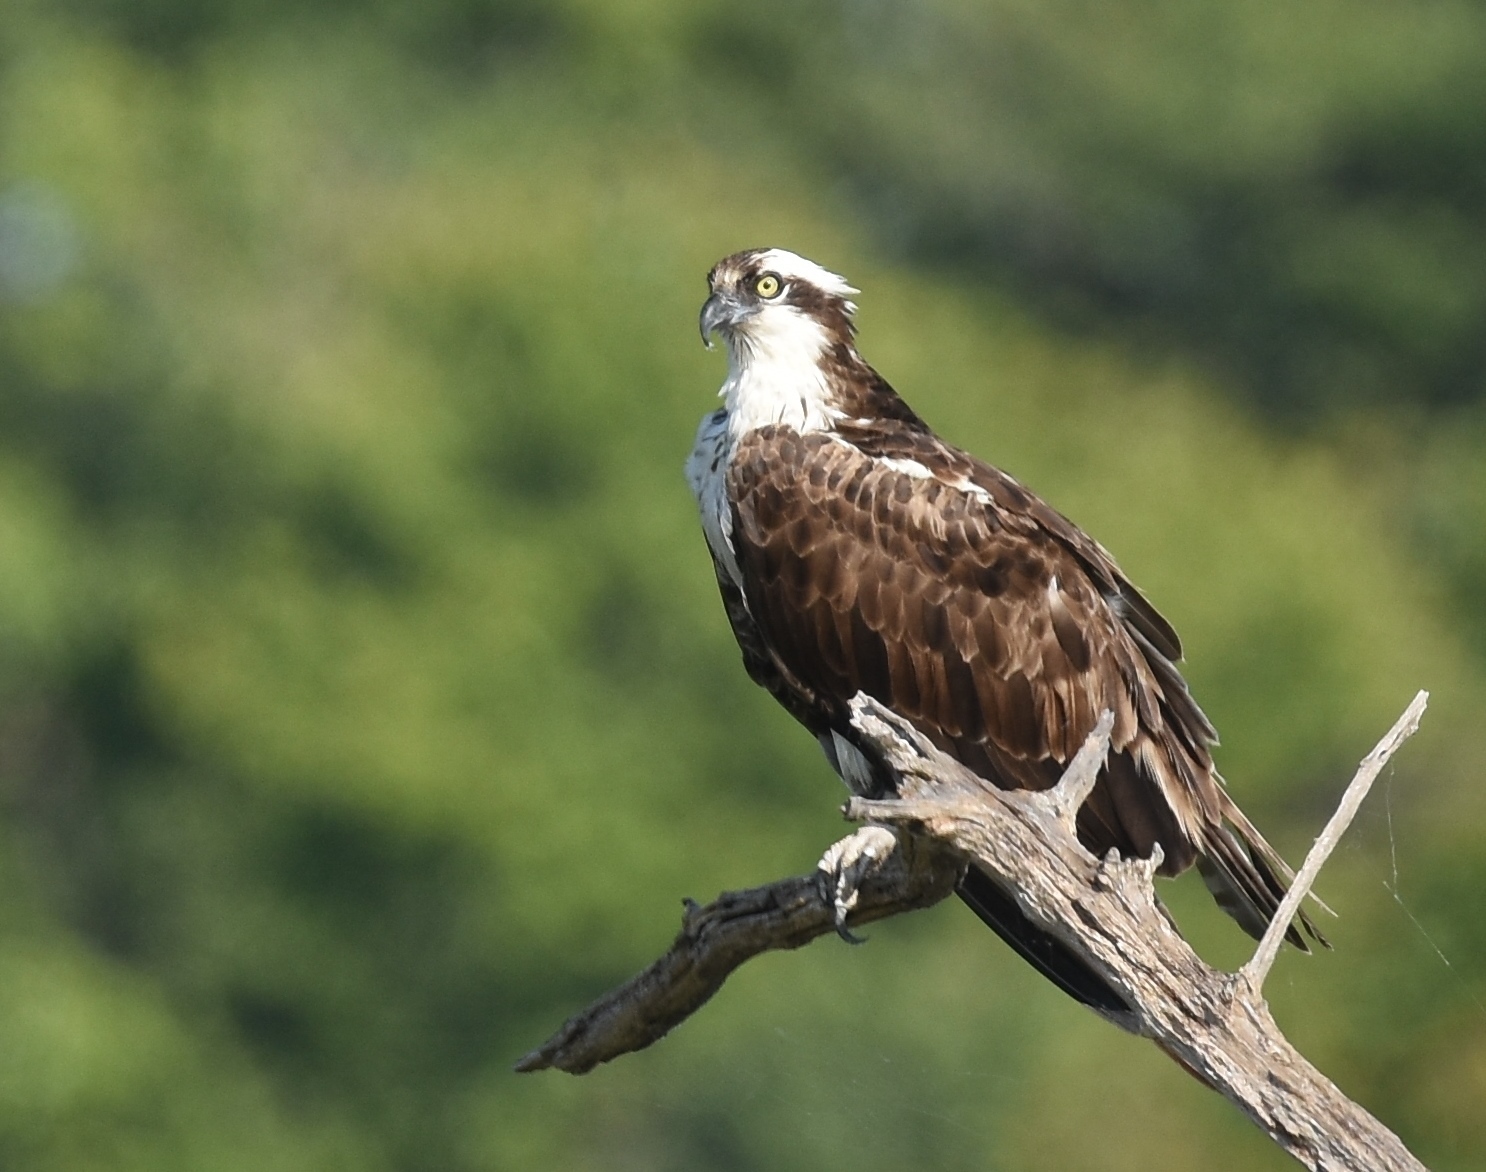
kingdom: Animalia
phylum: Chordata
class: Aves
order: Accipitriformes
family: Pandionidae
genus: Pandion
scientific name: Pandion haliaetus
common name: Osprey
